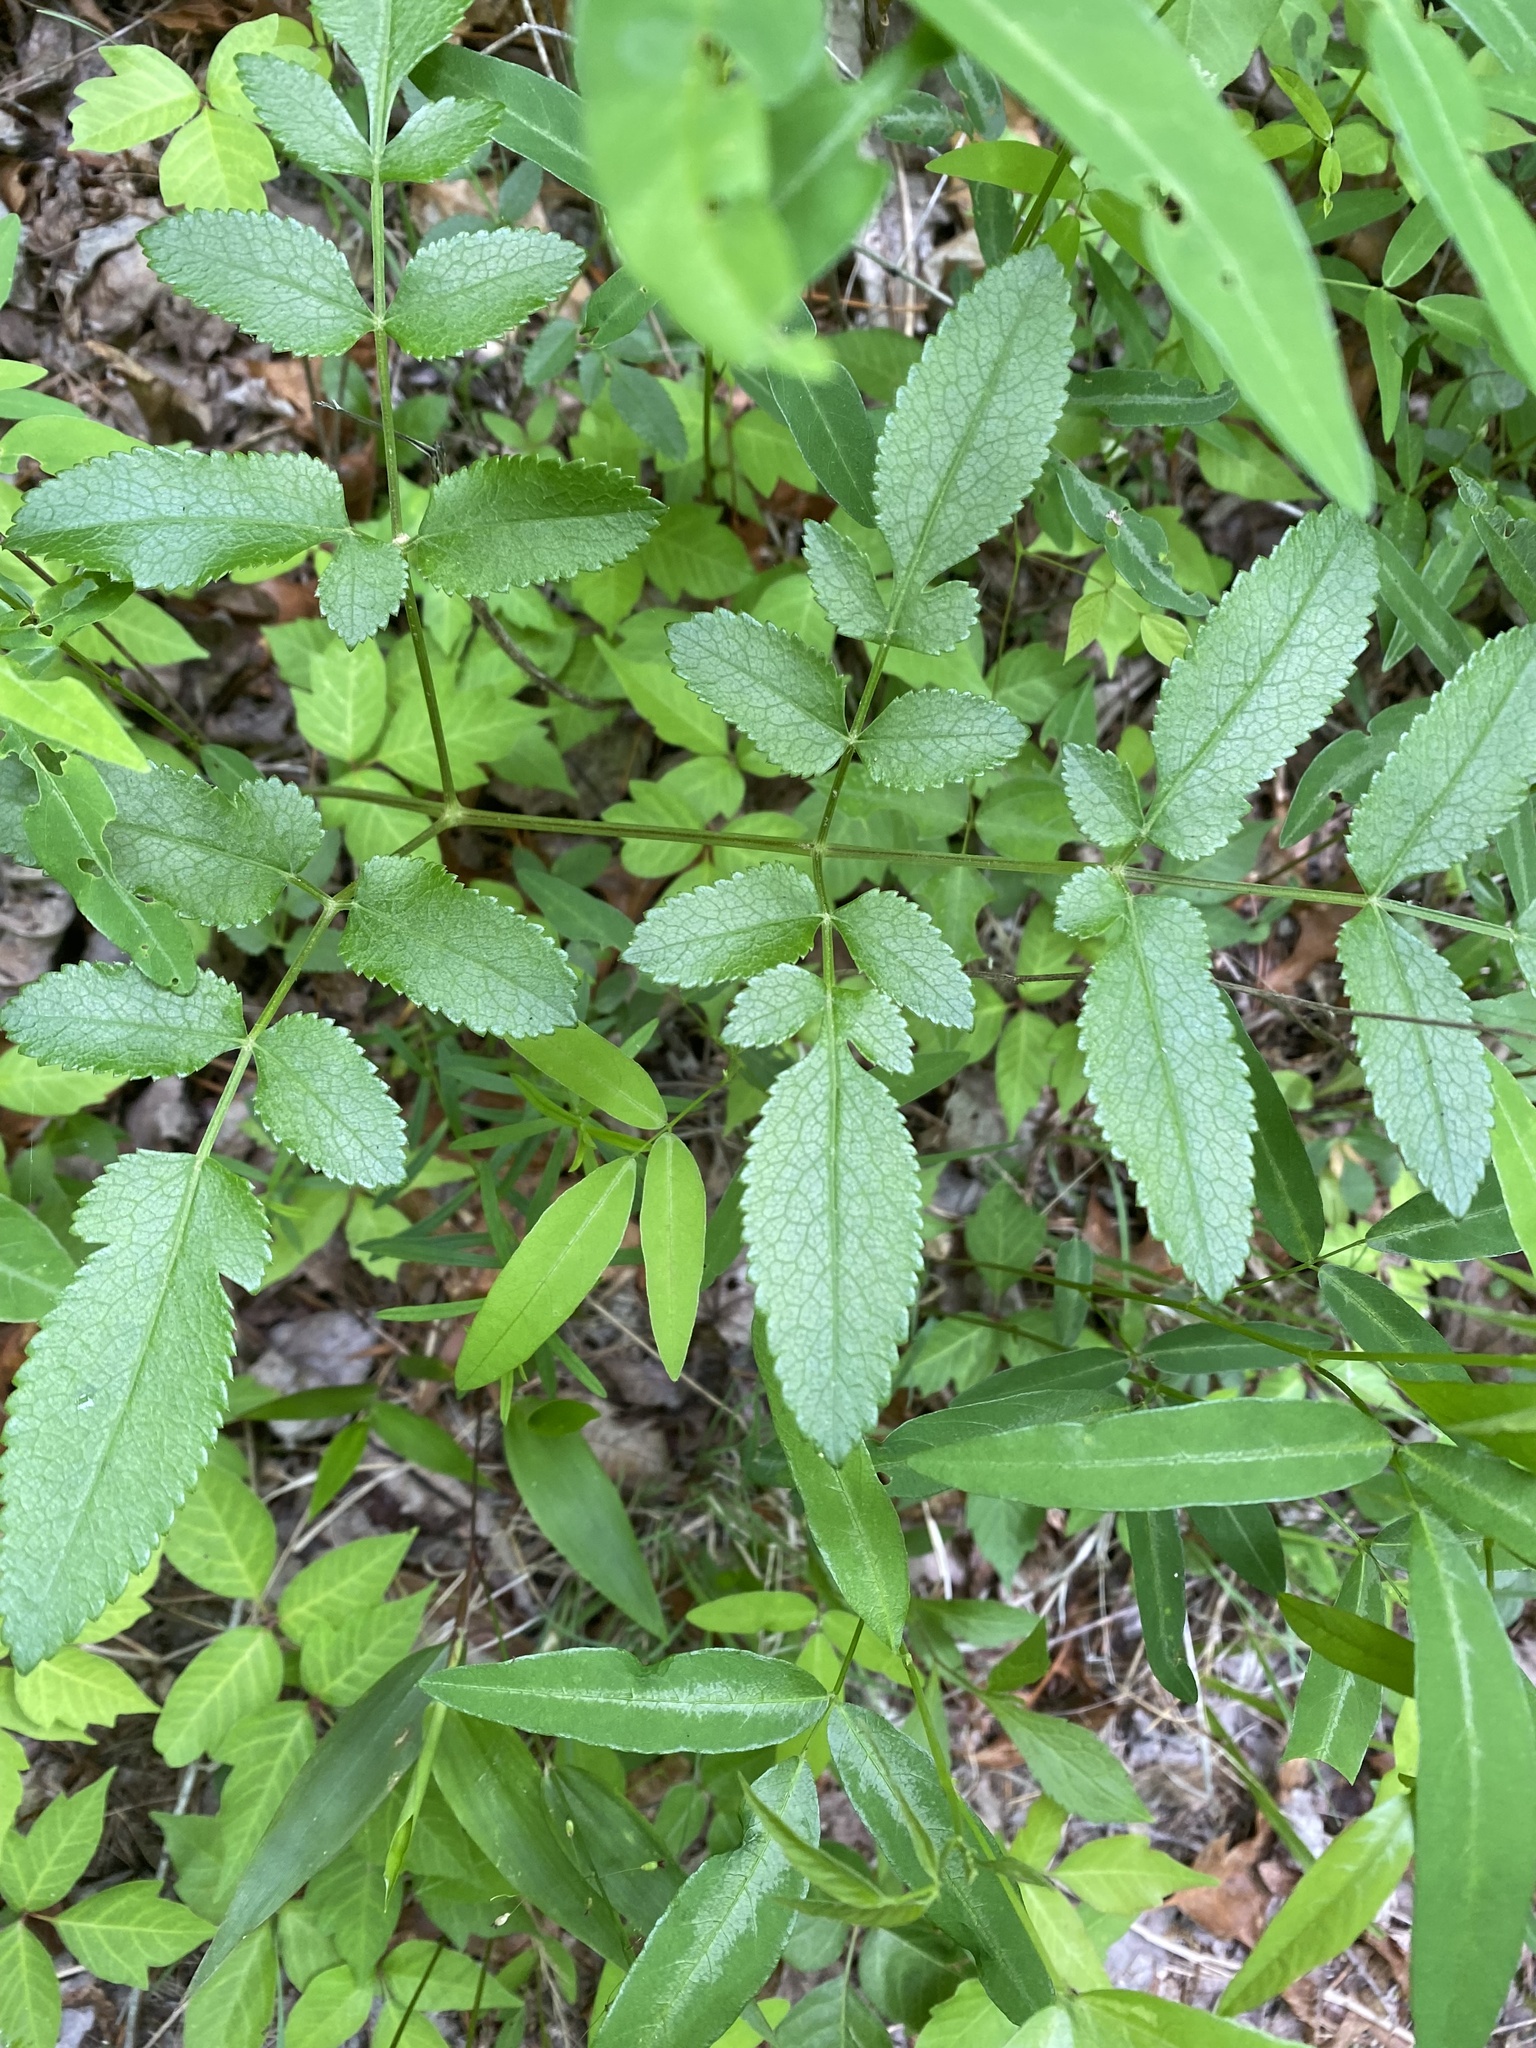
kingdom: Plantae
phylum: Tracheophyta
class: Magnoliopsida
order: Apiales
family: Apiaceae
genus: Angelica
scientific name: Angelica venenosa
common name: Hairy angelica
